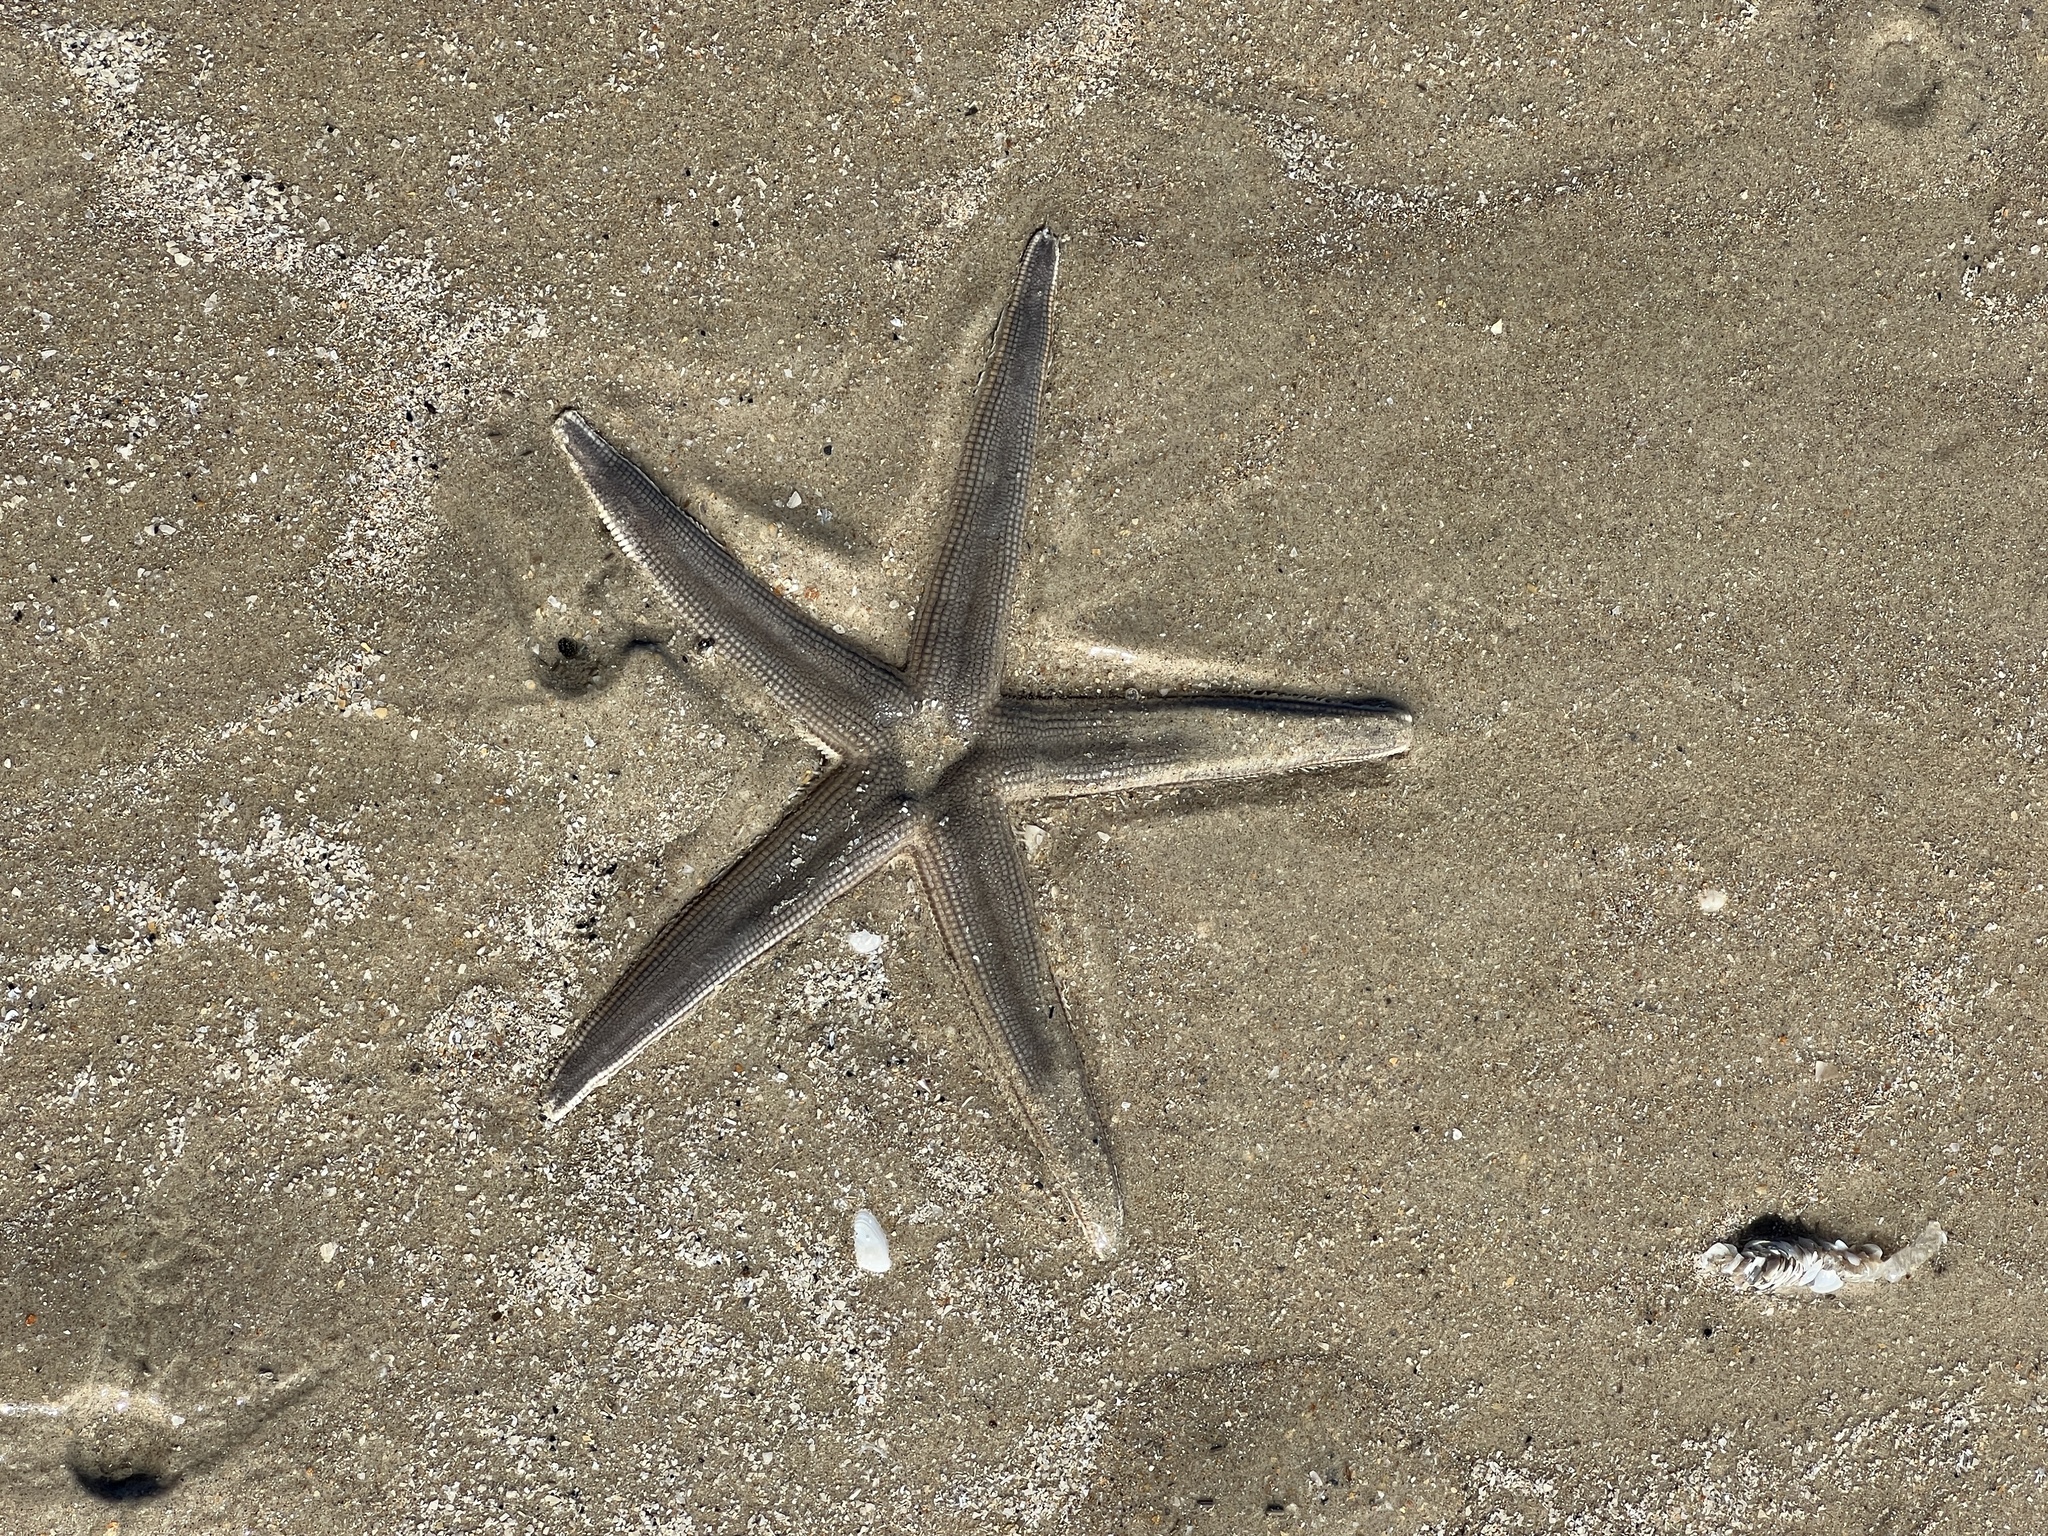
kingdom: Animalia
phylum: Echinodermata
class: Asteroidea
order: Paxillosida
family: Luidiidae
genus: Luidia
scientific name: Luidia clathrata
